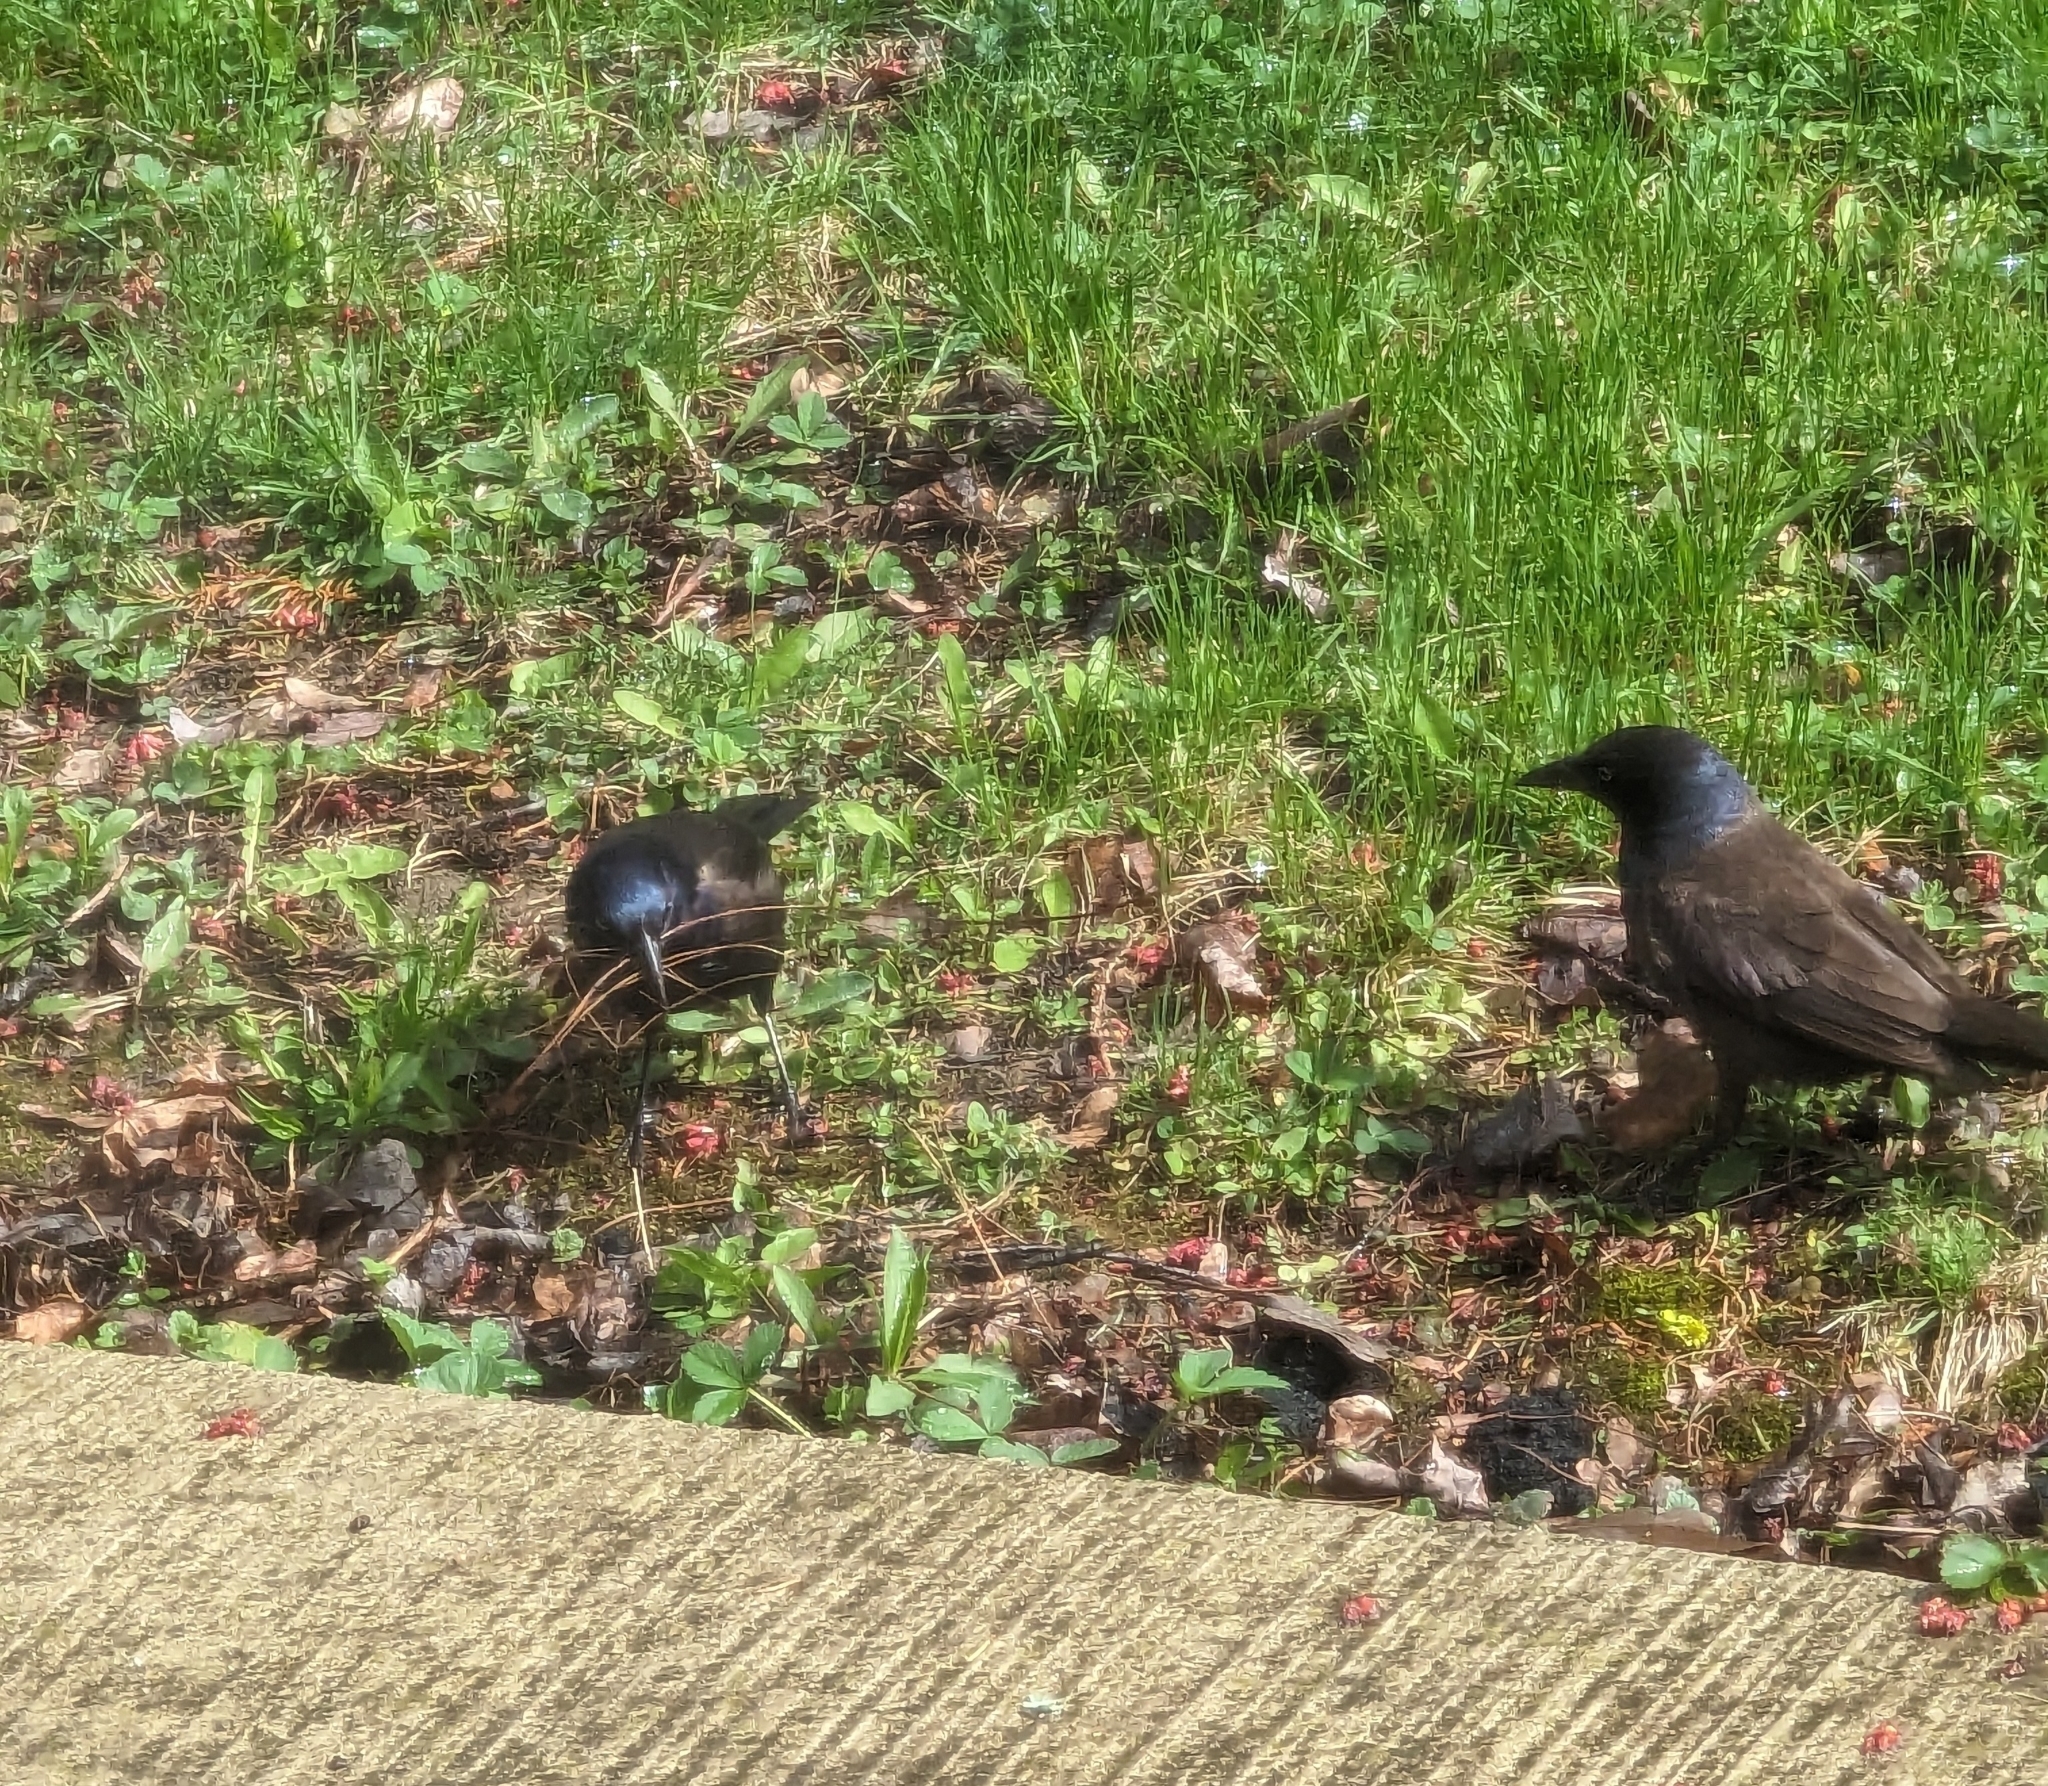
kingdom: Animalia
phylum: Chordata
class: Aves
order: Passeriformes
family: Icteridae
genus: Quiscalus
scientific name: Quiscalus quiscula
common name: Common grackle
